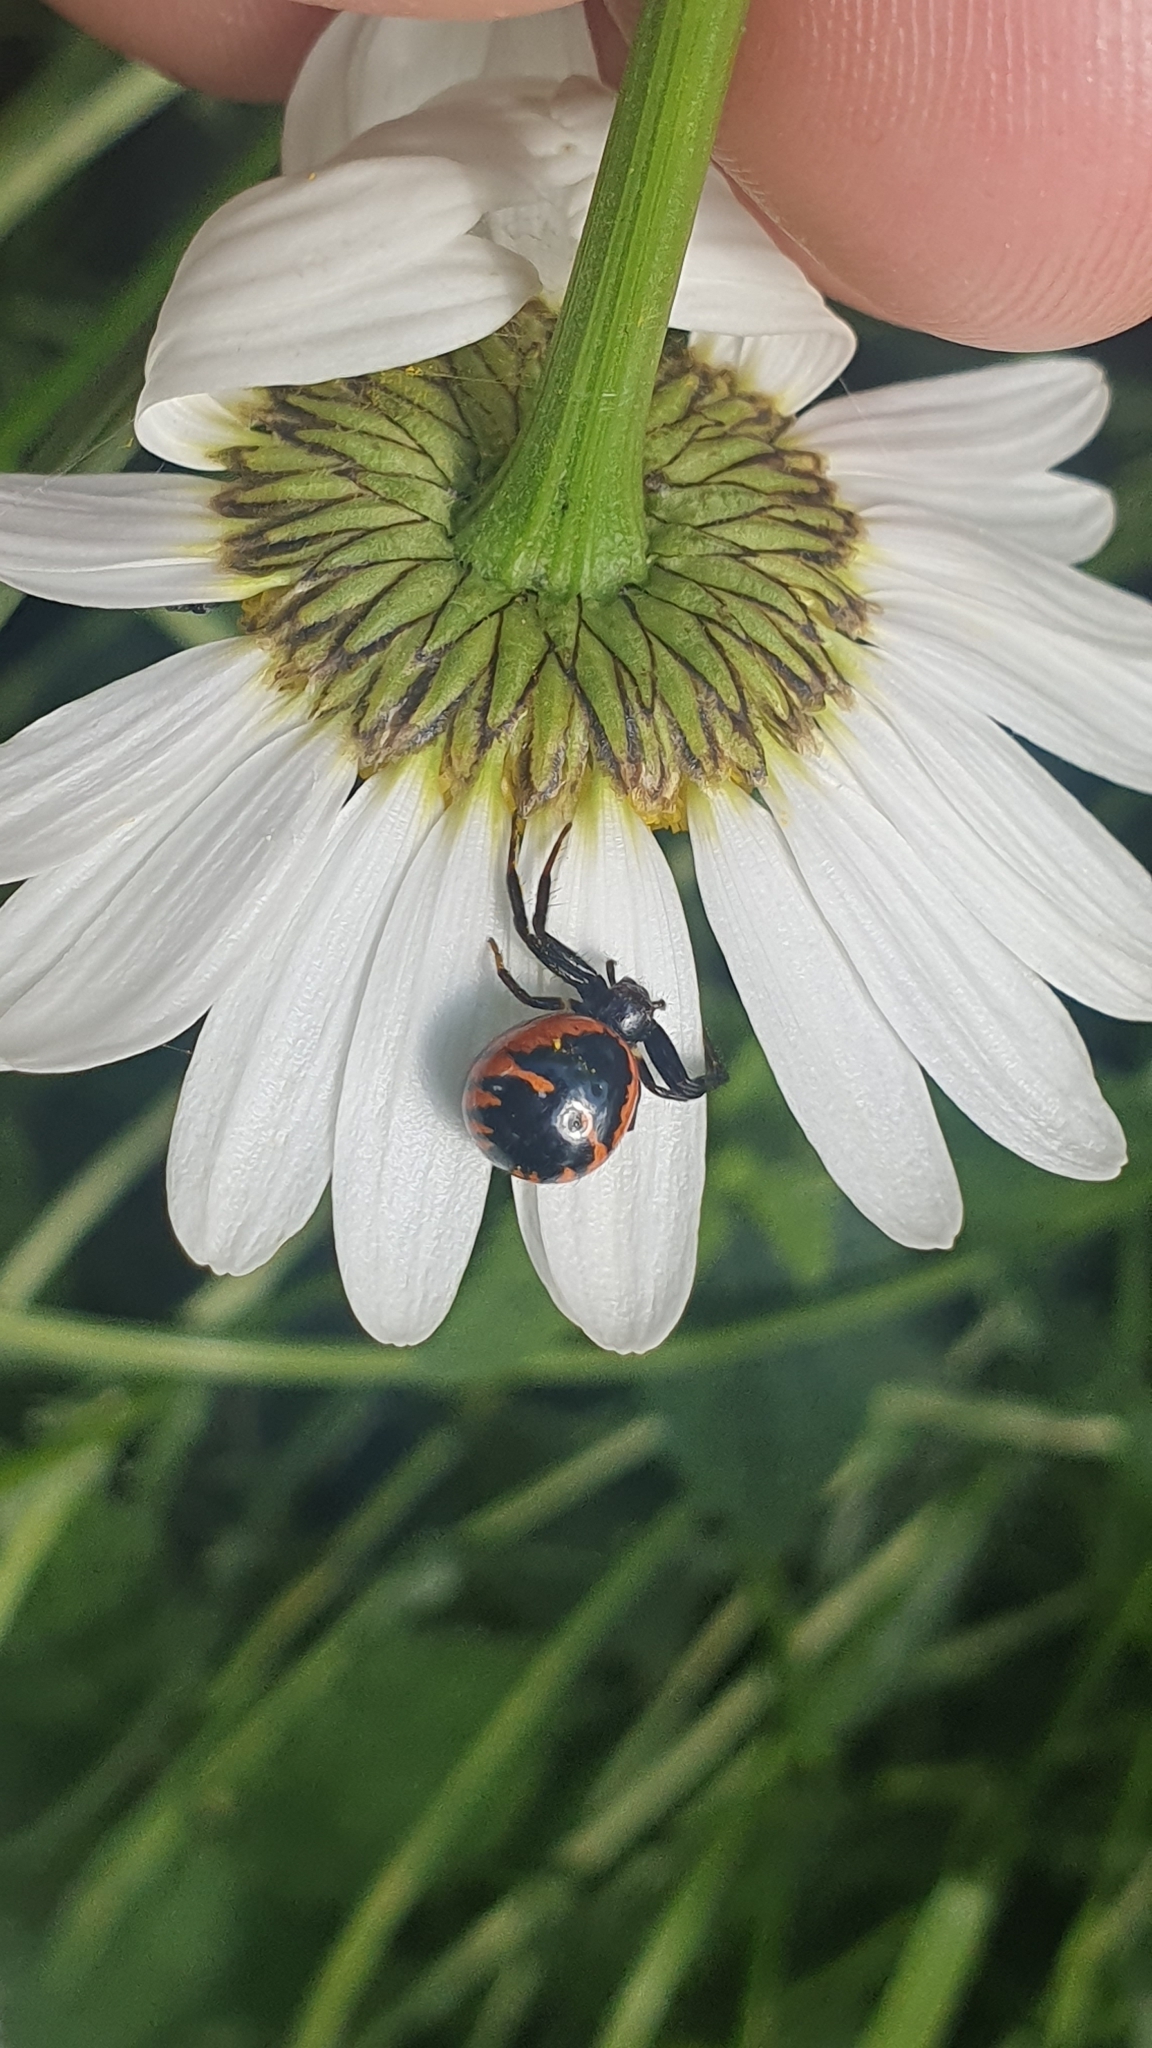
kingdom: Animalia
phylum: Arthropoda
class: Arachnida
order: Araneae
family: Thomisidae
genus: Synema
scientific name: Synema globosum
